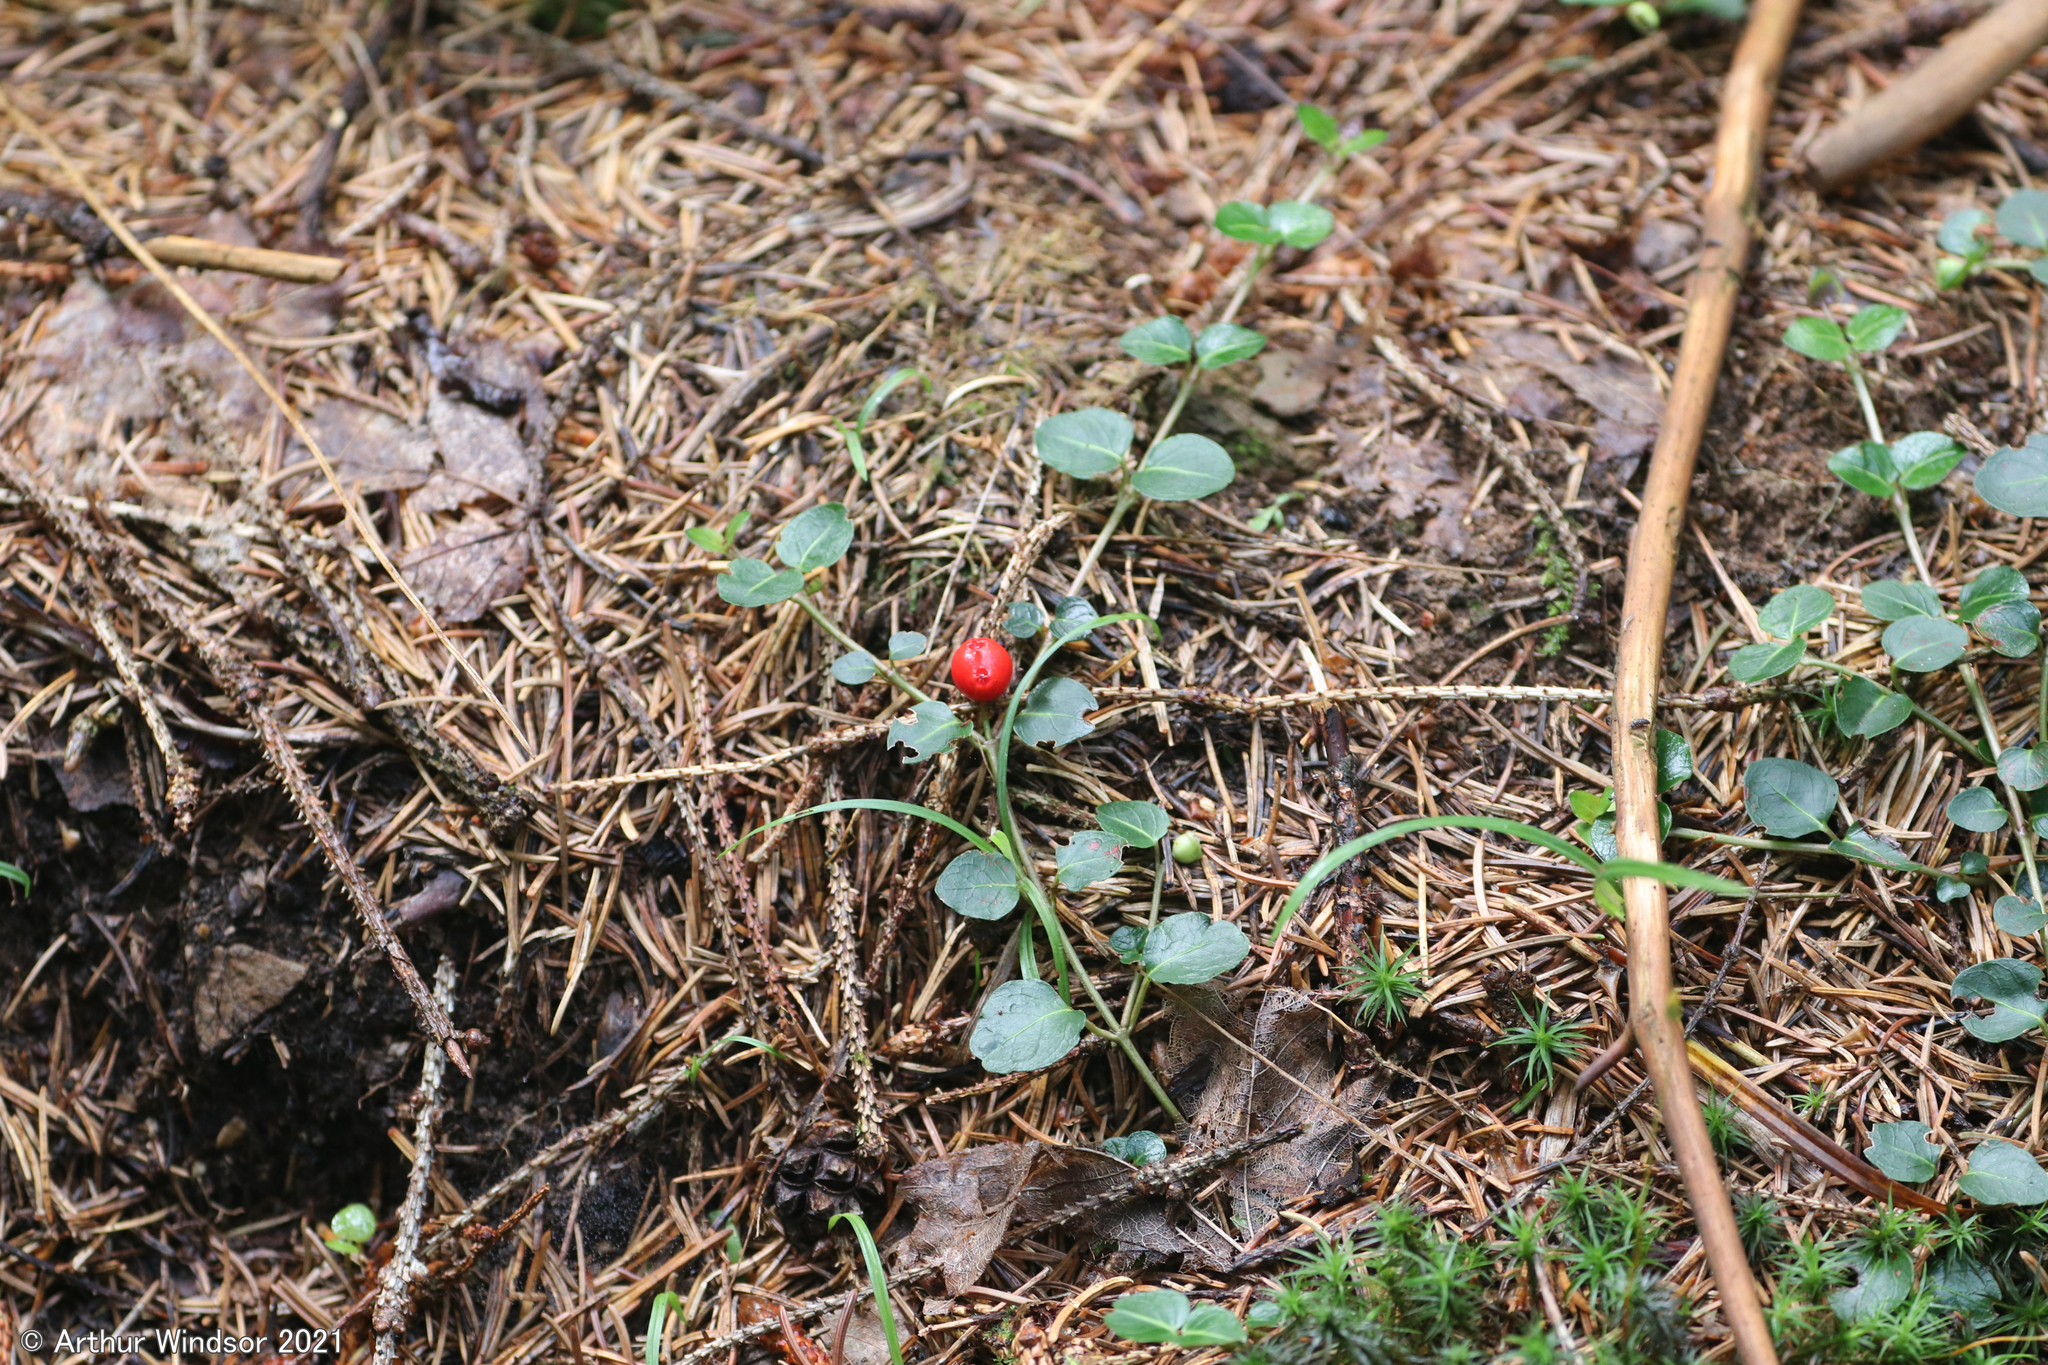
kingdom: Plantae
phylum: Tracheophyta
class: Magnoliopsida
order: Gentianales
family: Rubiaceae
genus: Mitchella
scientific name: Mitchella repens
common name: Partridge-berry
